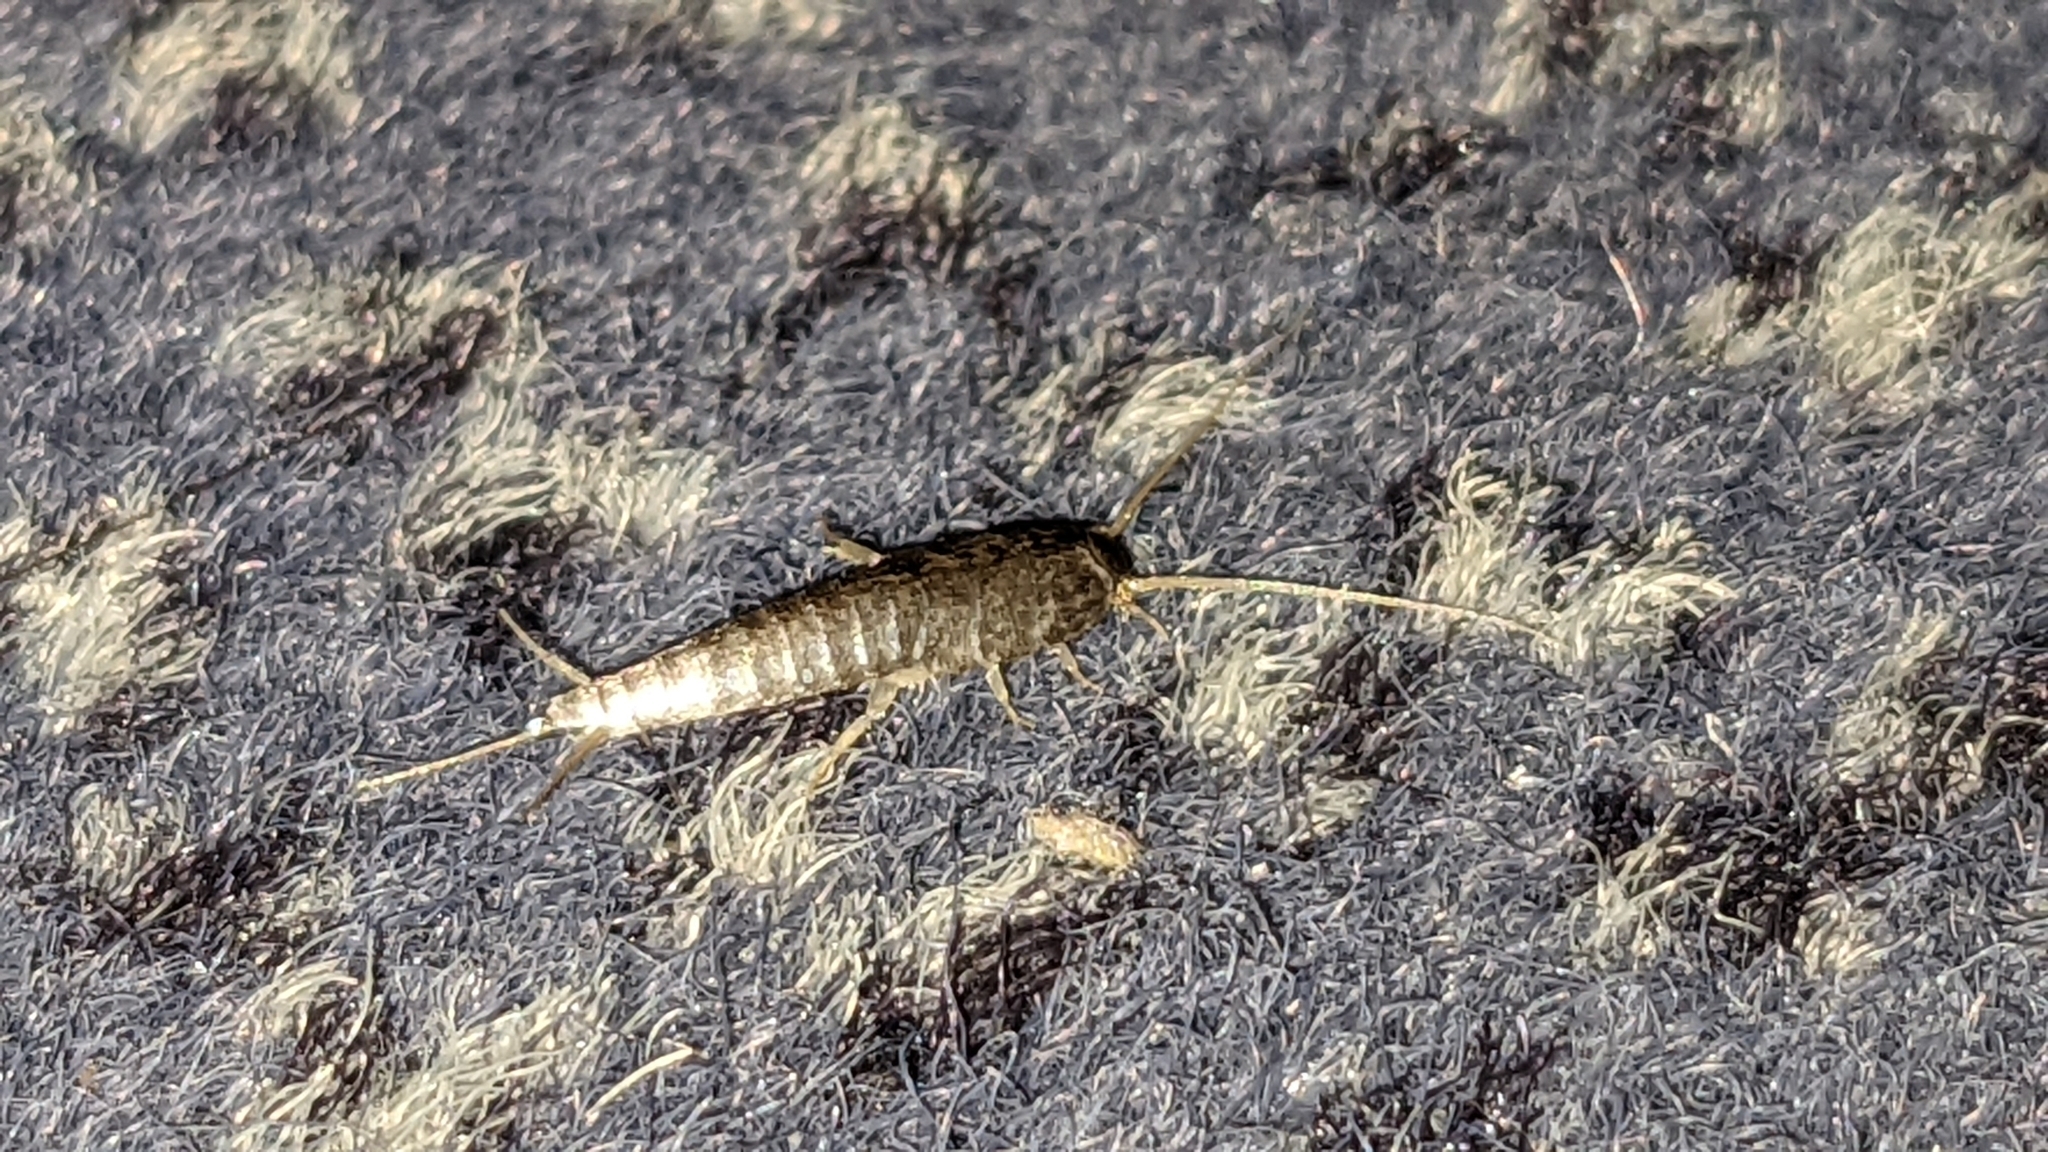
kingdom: Animalia
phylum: Arthropoda
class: Insecta
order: Zygentoma
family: Lepismatidae
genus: Lepisma
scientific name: Lepisma saccharinum
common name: Silverfish
